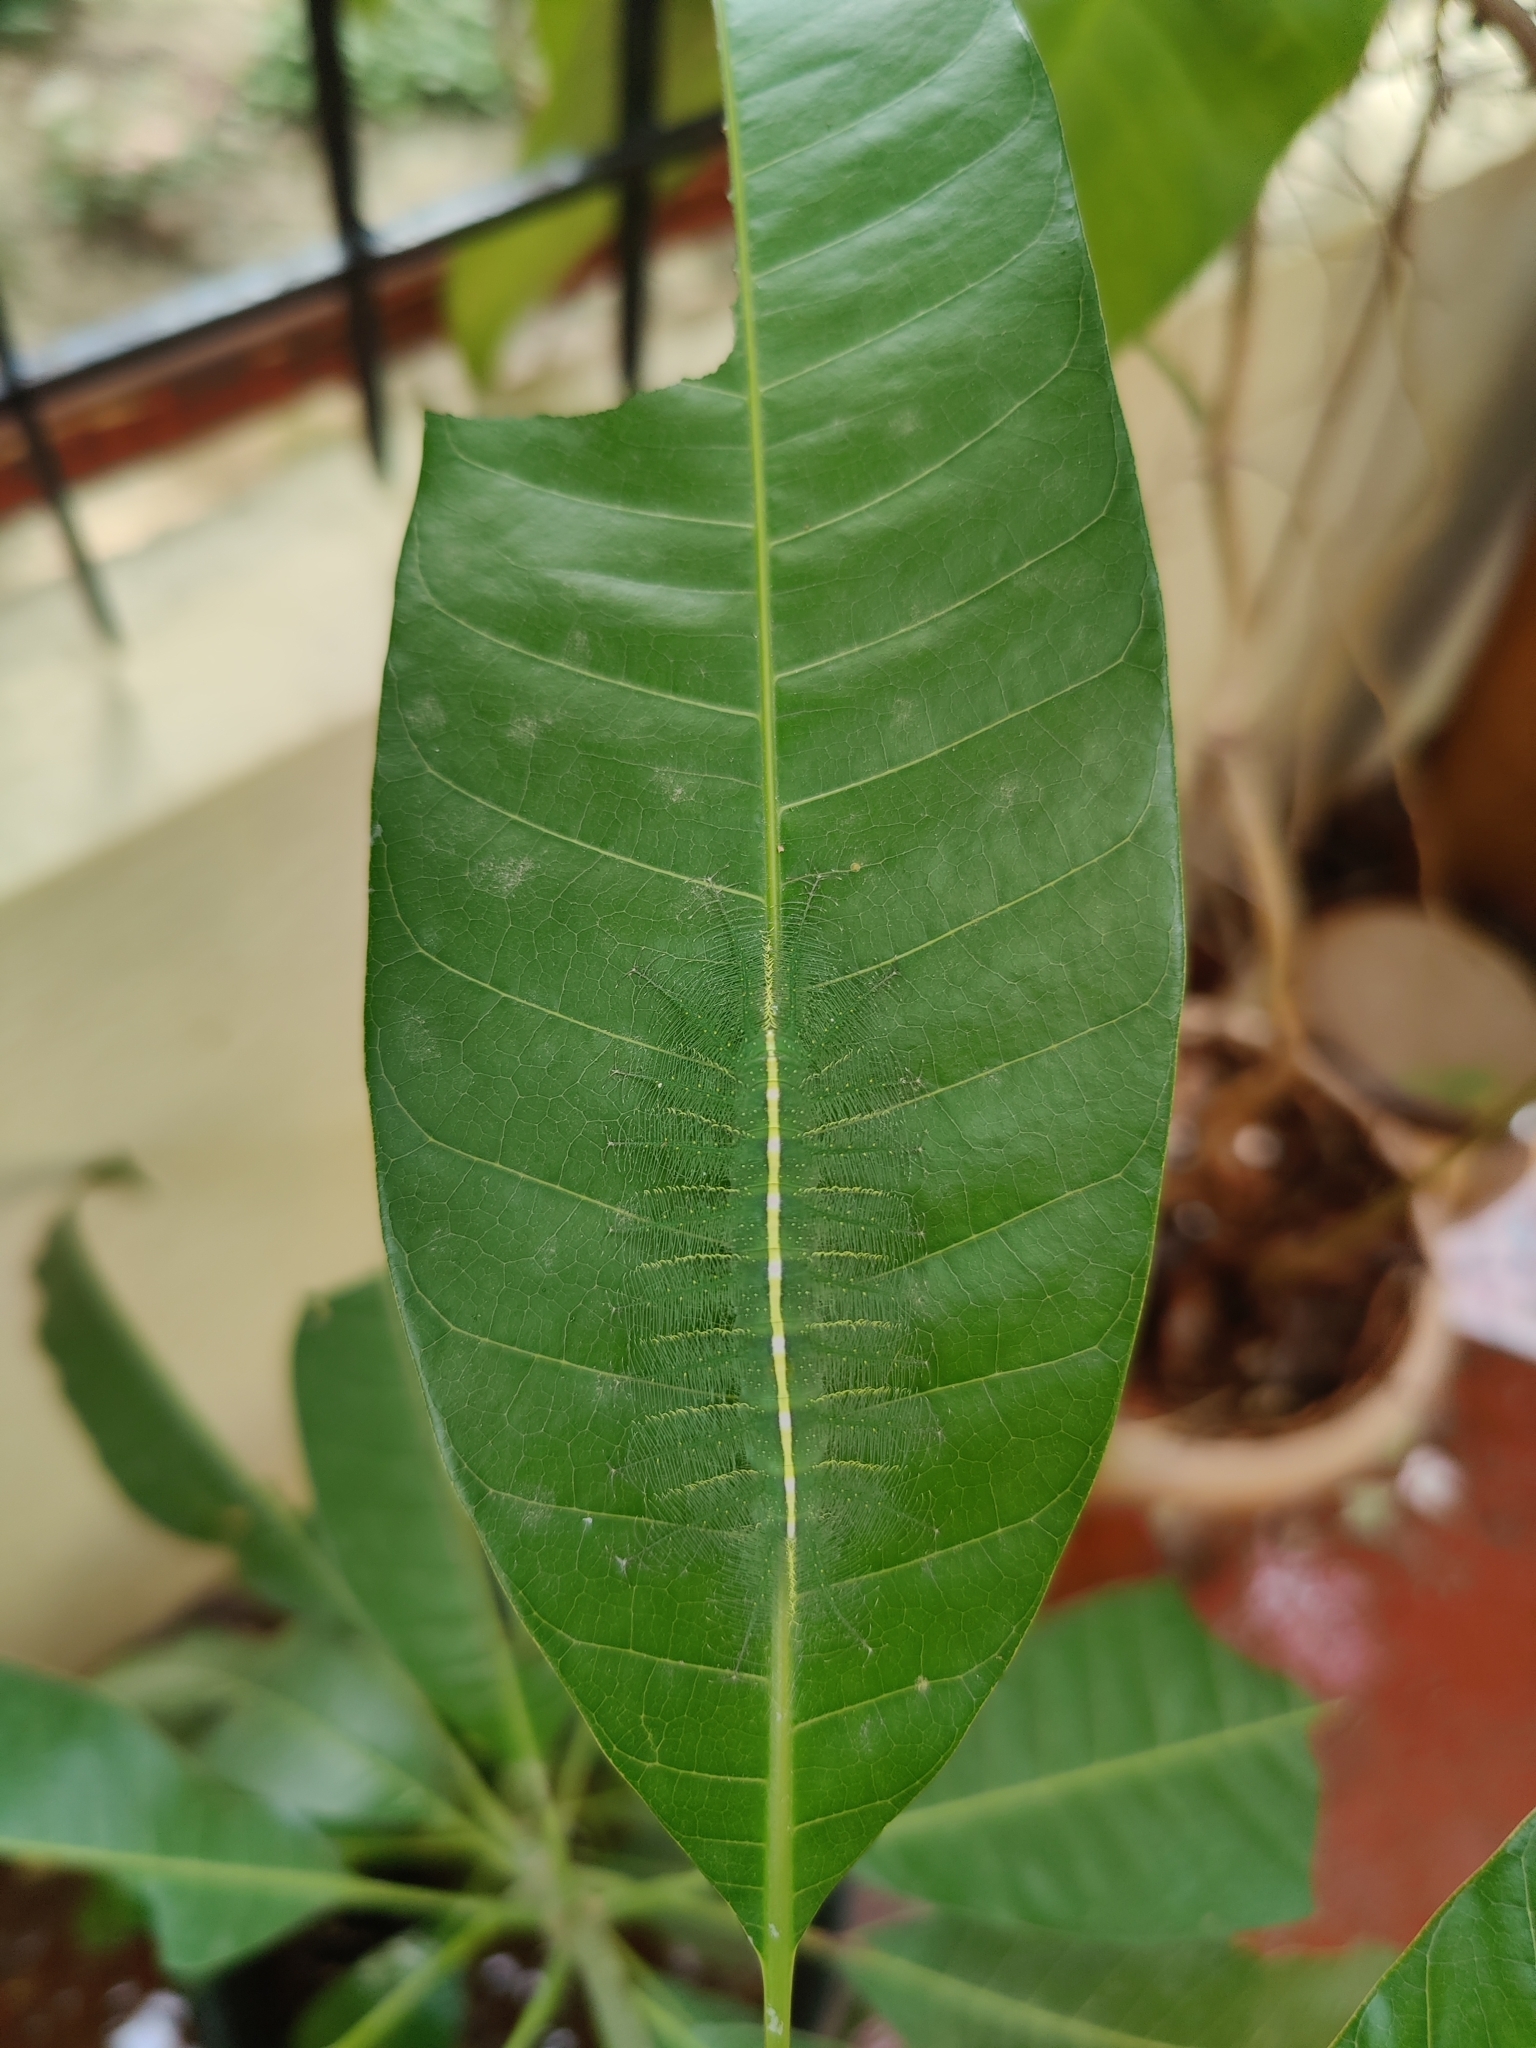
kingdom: Animalia
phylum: Arthropoda
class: Insecta
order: Lepidoptera
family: Nymphalidae
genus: Euthalia
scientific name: Euthalia aconthea
